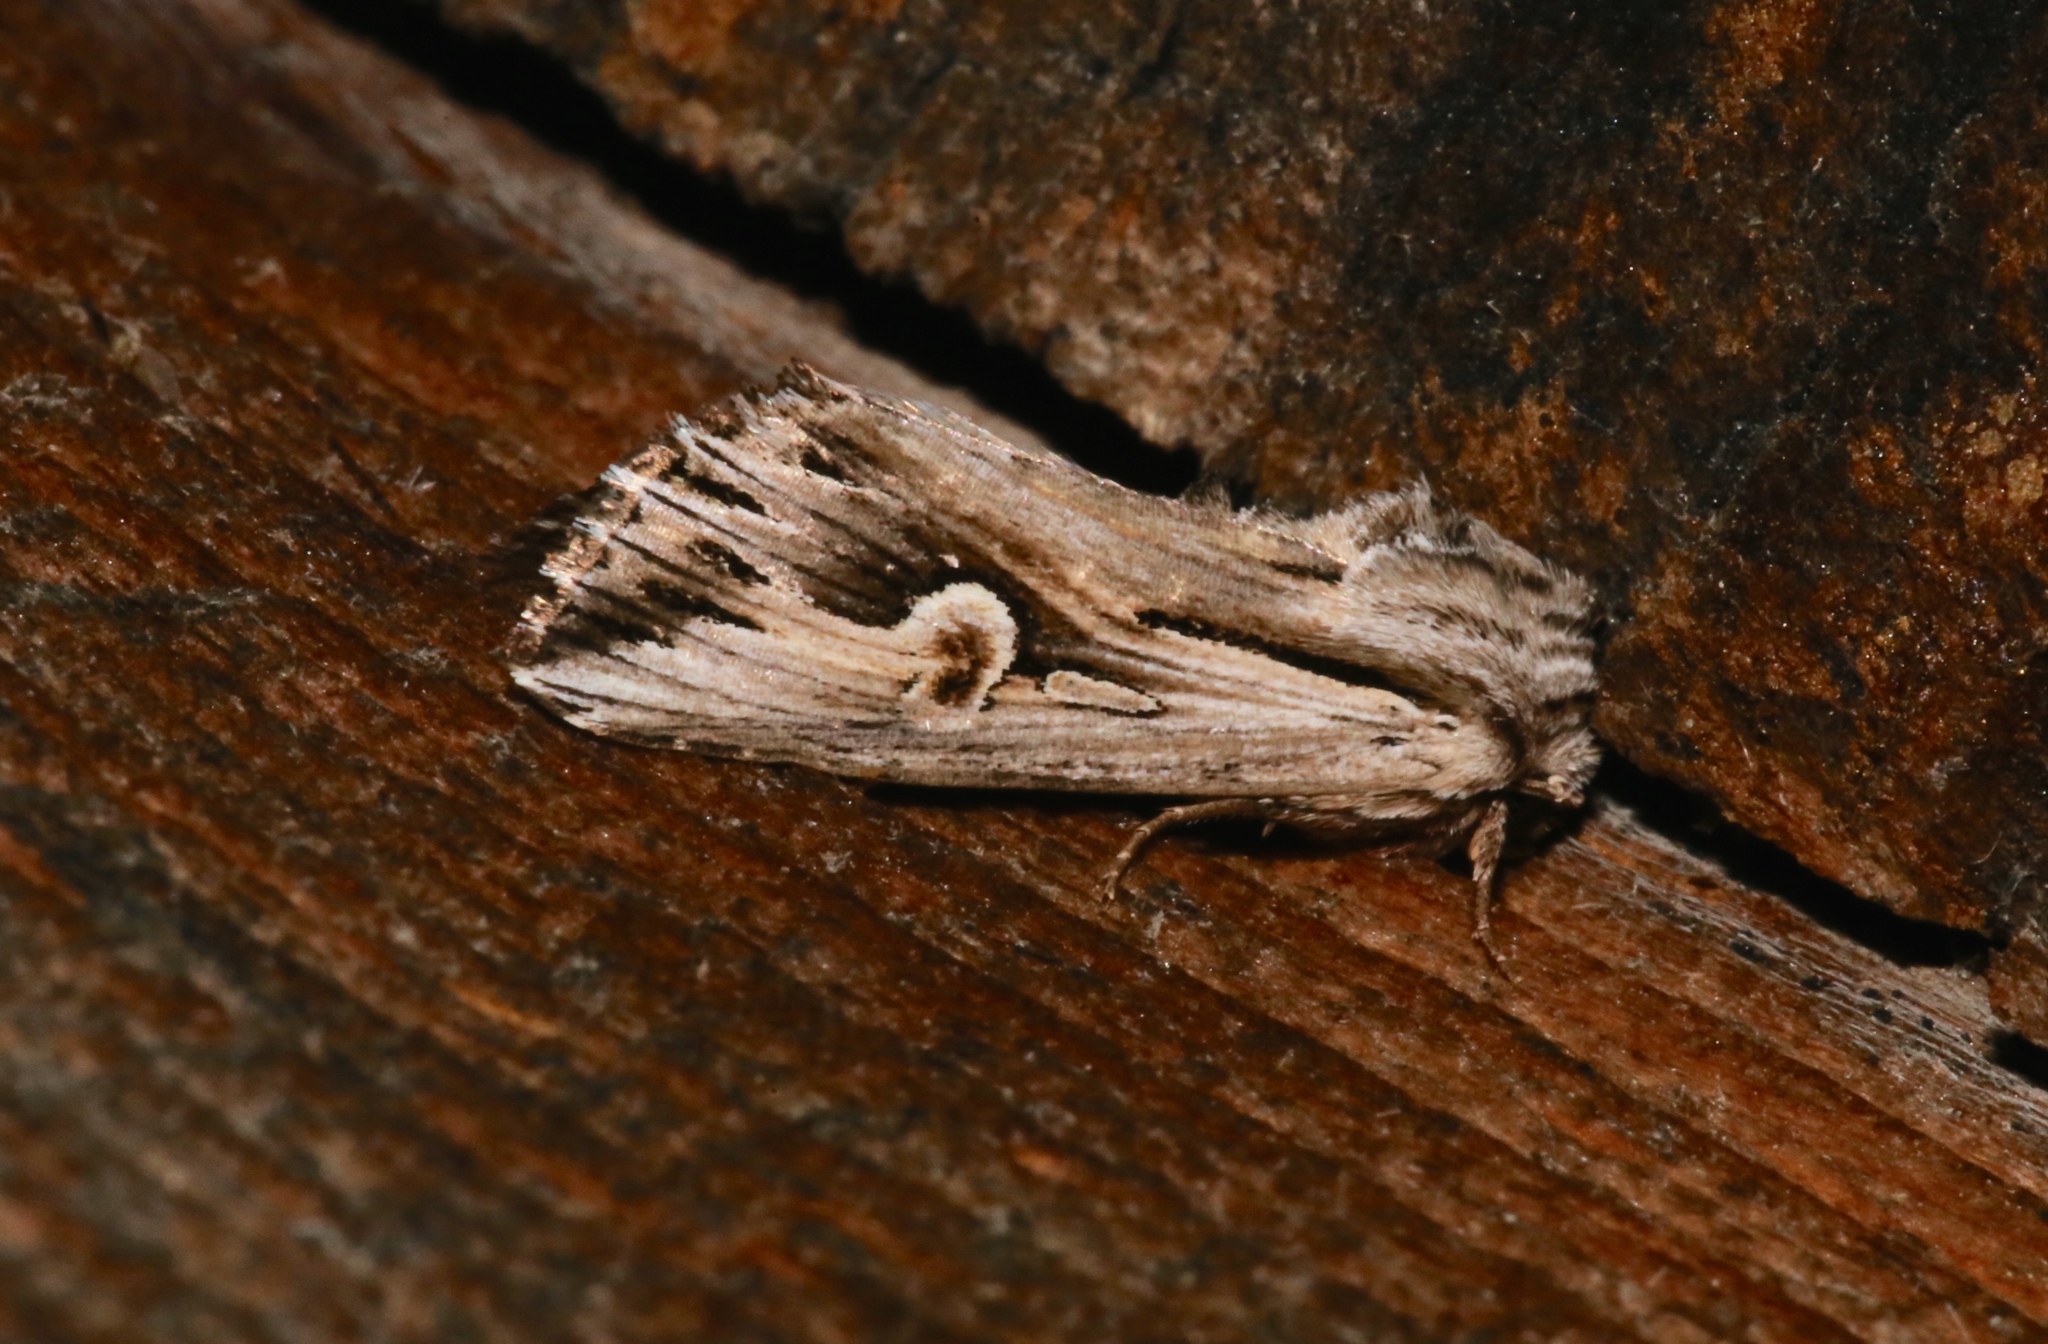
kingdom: Animalia
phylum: Arthropoda
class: Insecta
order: Lepidoptera
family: Noctuidae
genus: Nedra
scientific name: Nedra ramosula
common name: Gray half-spot
